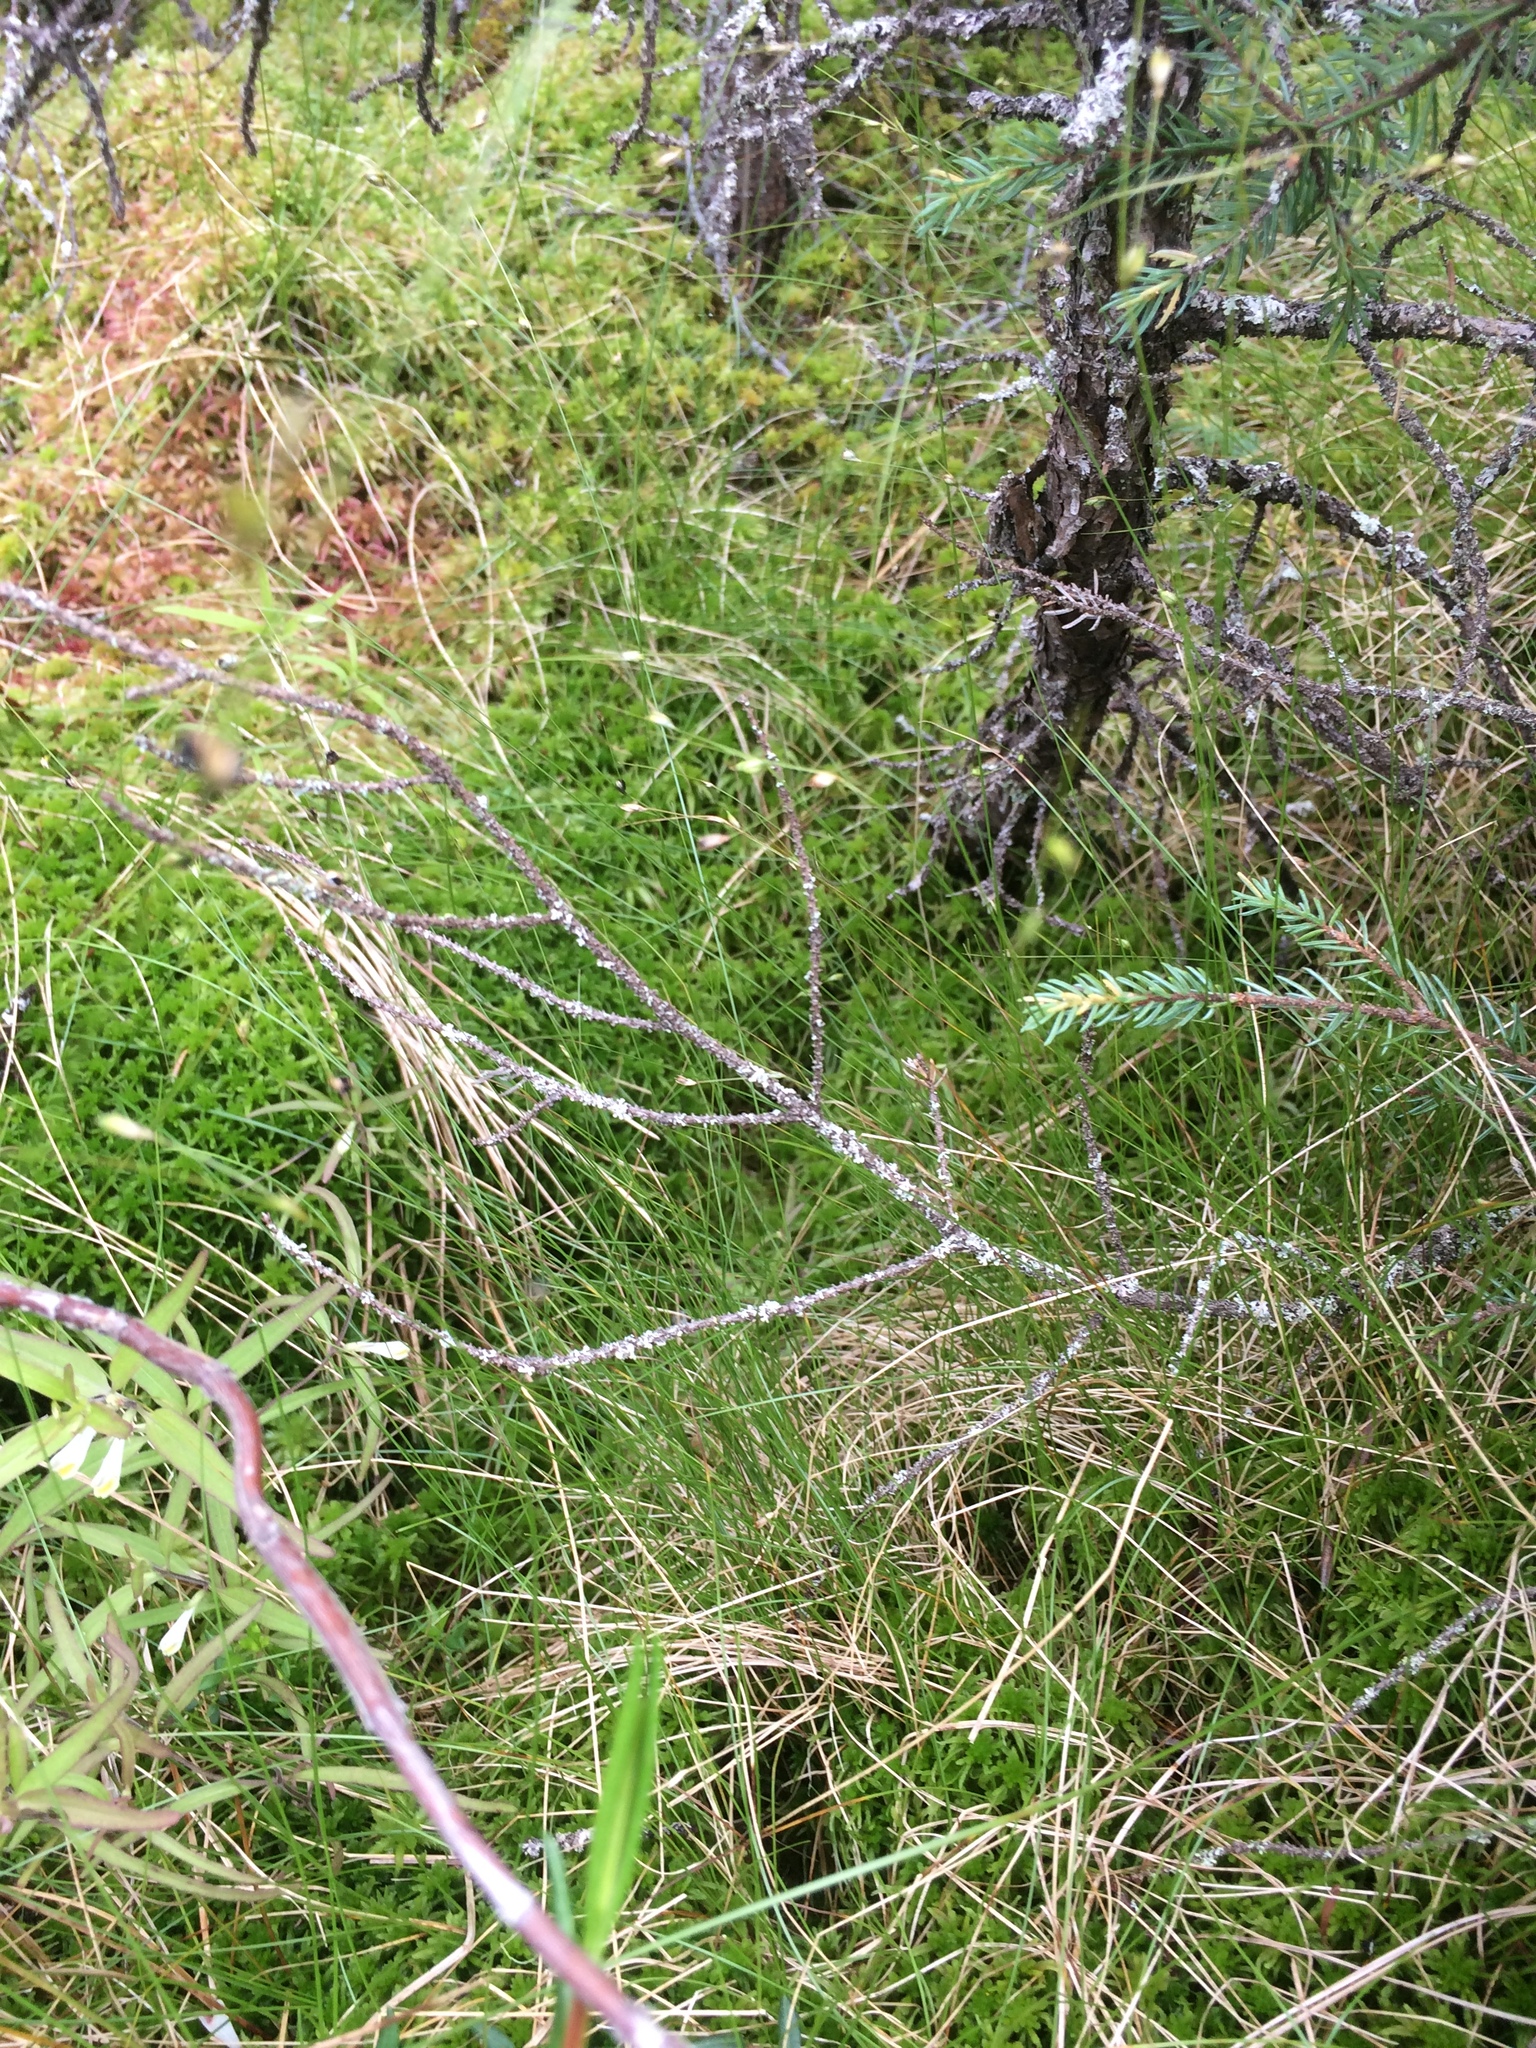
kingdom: Plantae
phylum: Tracheophyta
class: Liliopsida
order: Poales
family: Cyperaceae
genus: Carex
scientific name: Carex trisperma
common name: Three-seeded sedge
